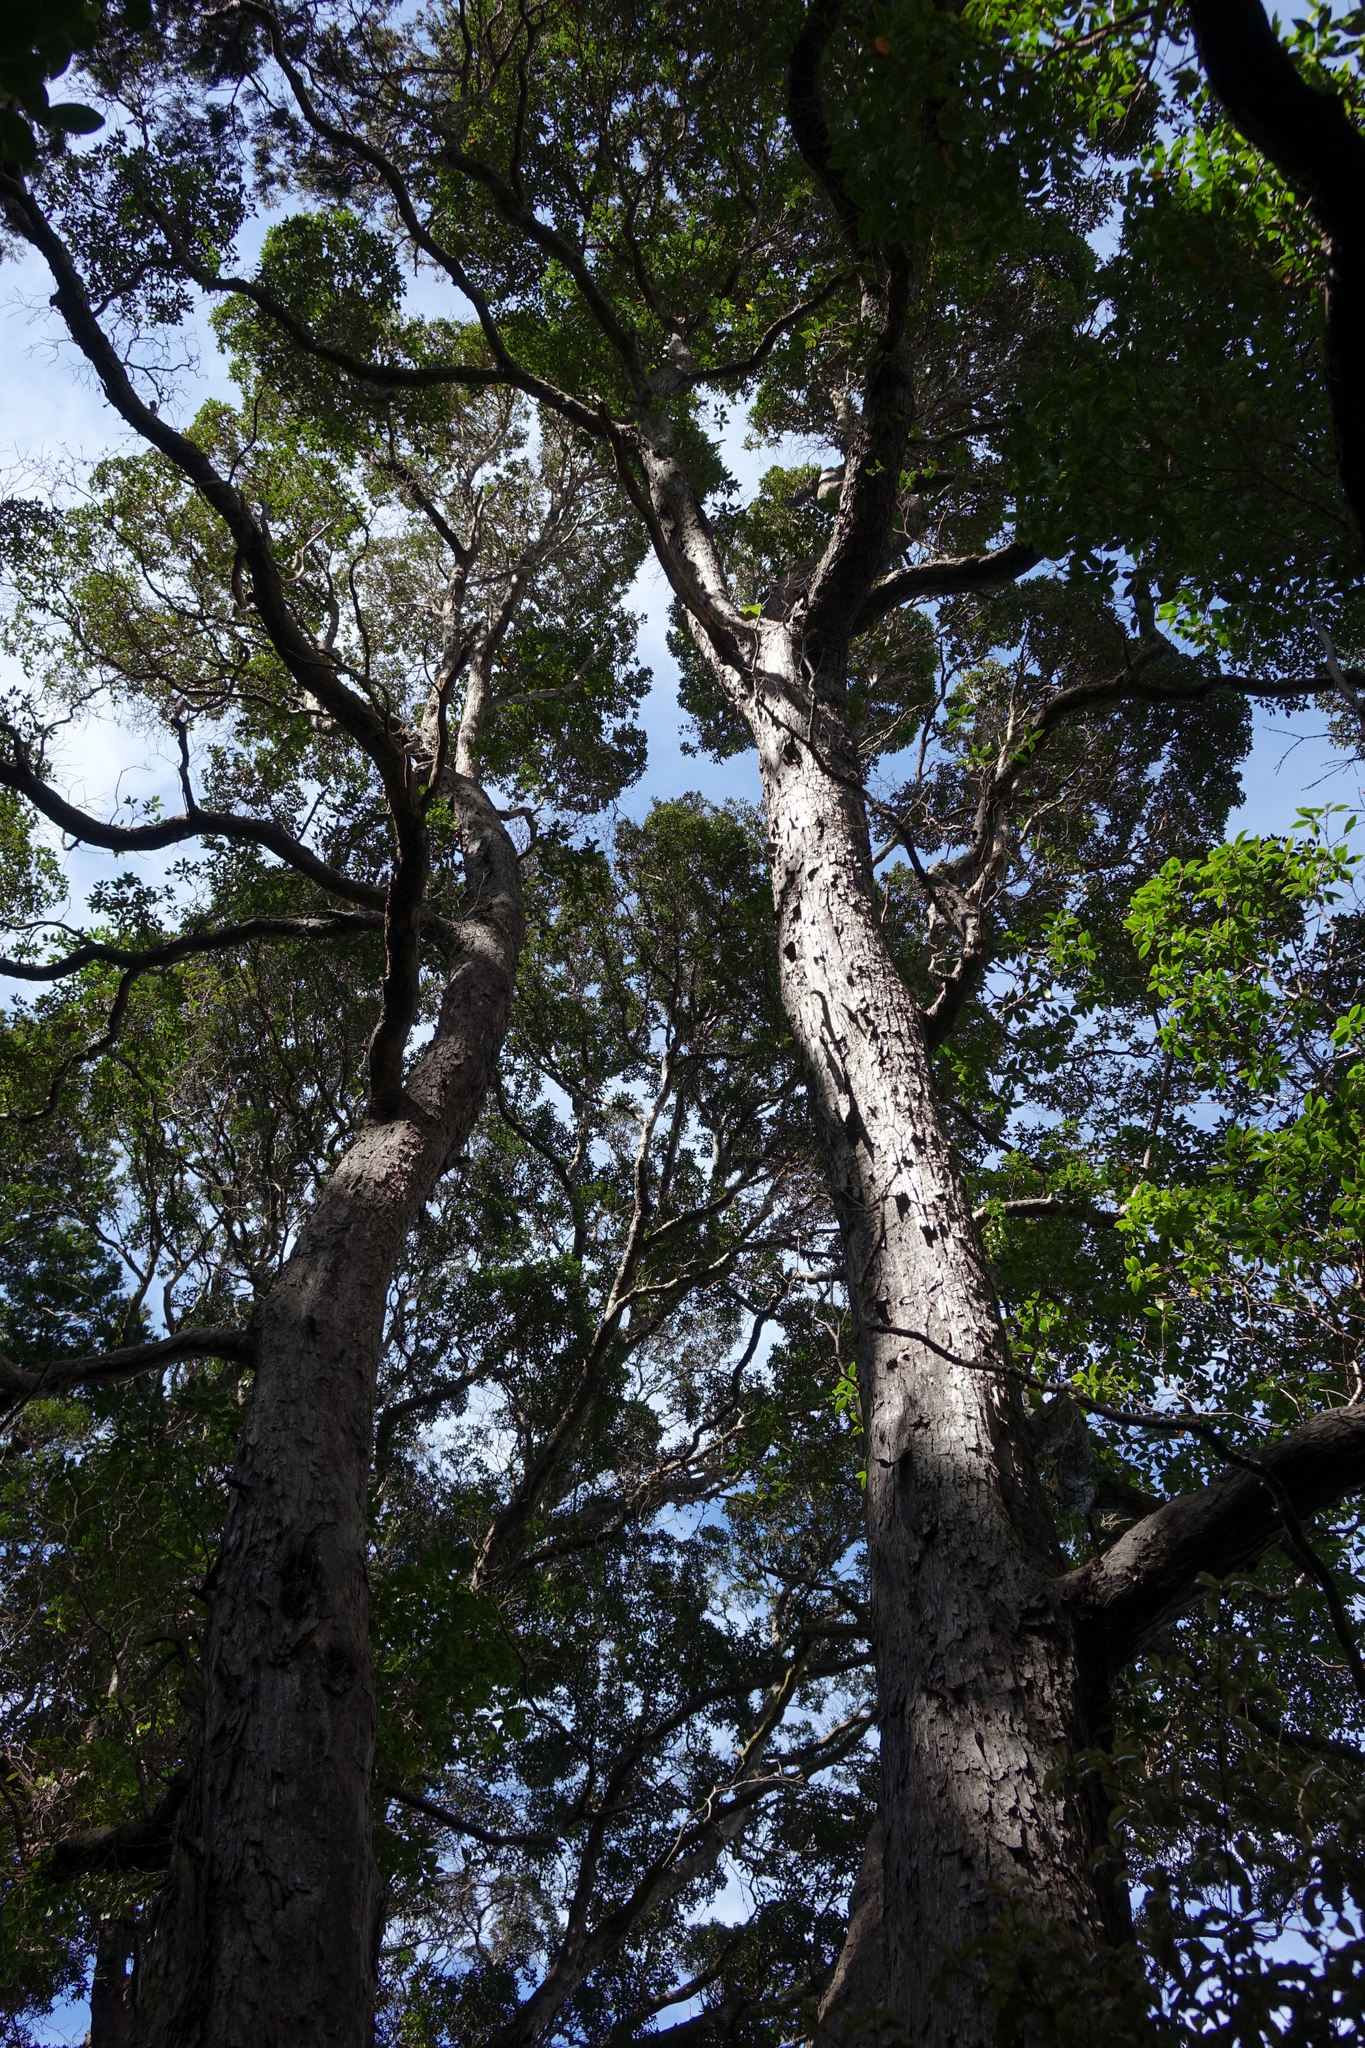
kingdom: Plantae
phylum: Tracheophyta
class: Magnoliopsida
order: Myrtales
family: Myrtaceae
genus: Metrosideros
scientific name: Metrosideros umbellata
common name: Southern rata
